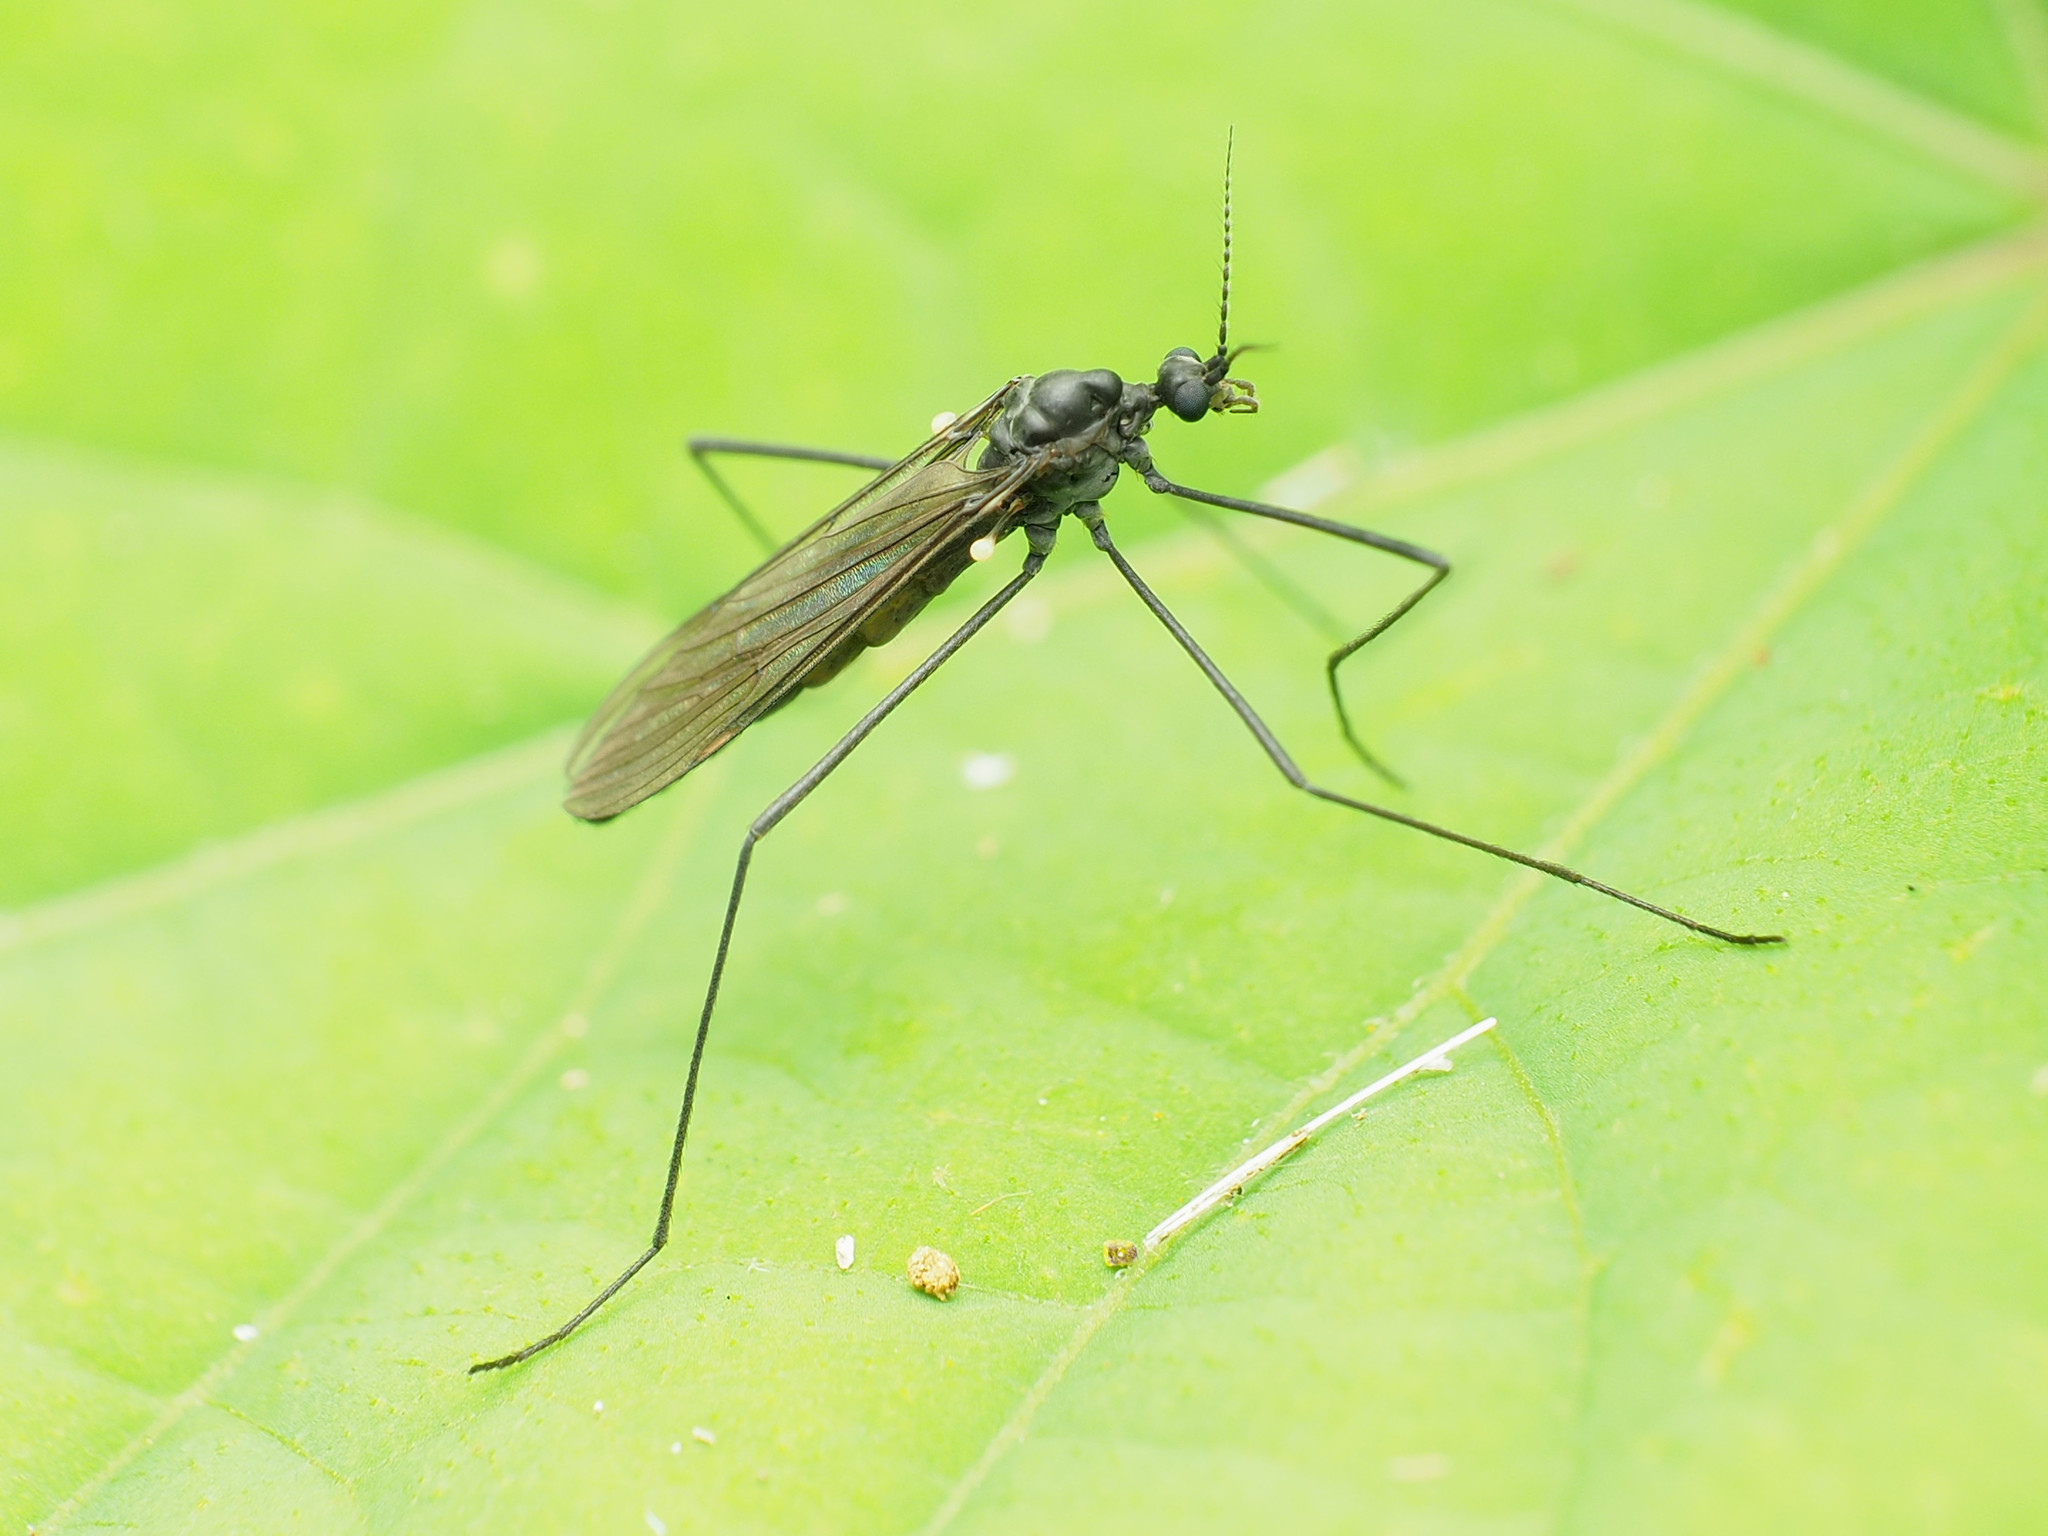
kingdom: Animalia
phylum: Arthropoda
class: Insecta
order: Diptera
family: Limoniidae
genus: Gnophomyia
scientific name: Gnophomyia tristissima
